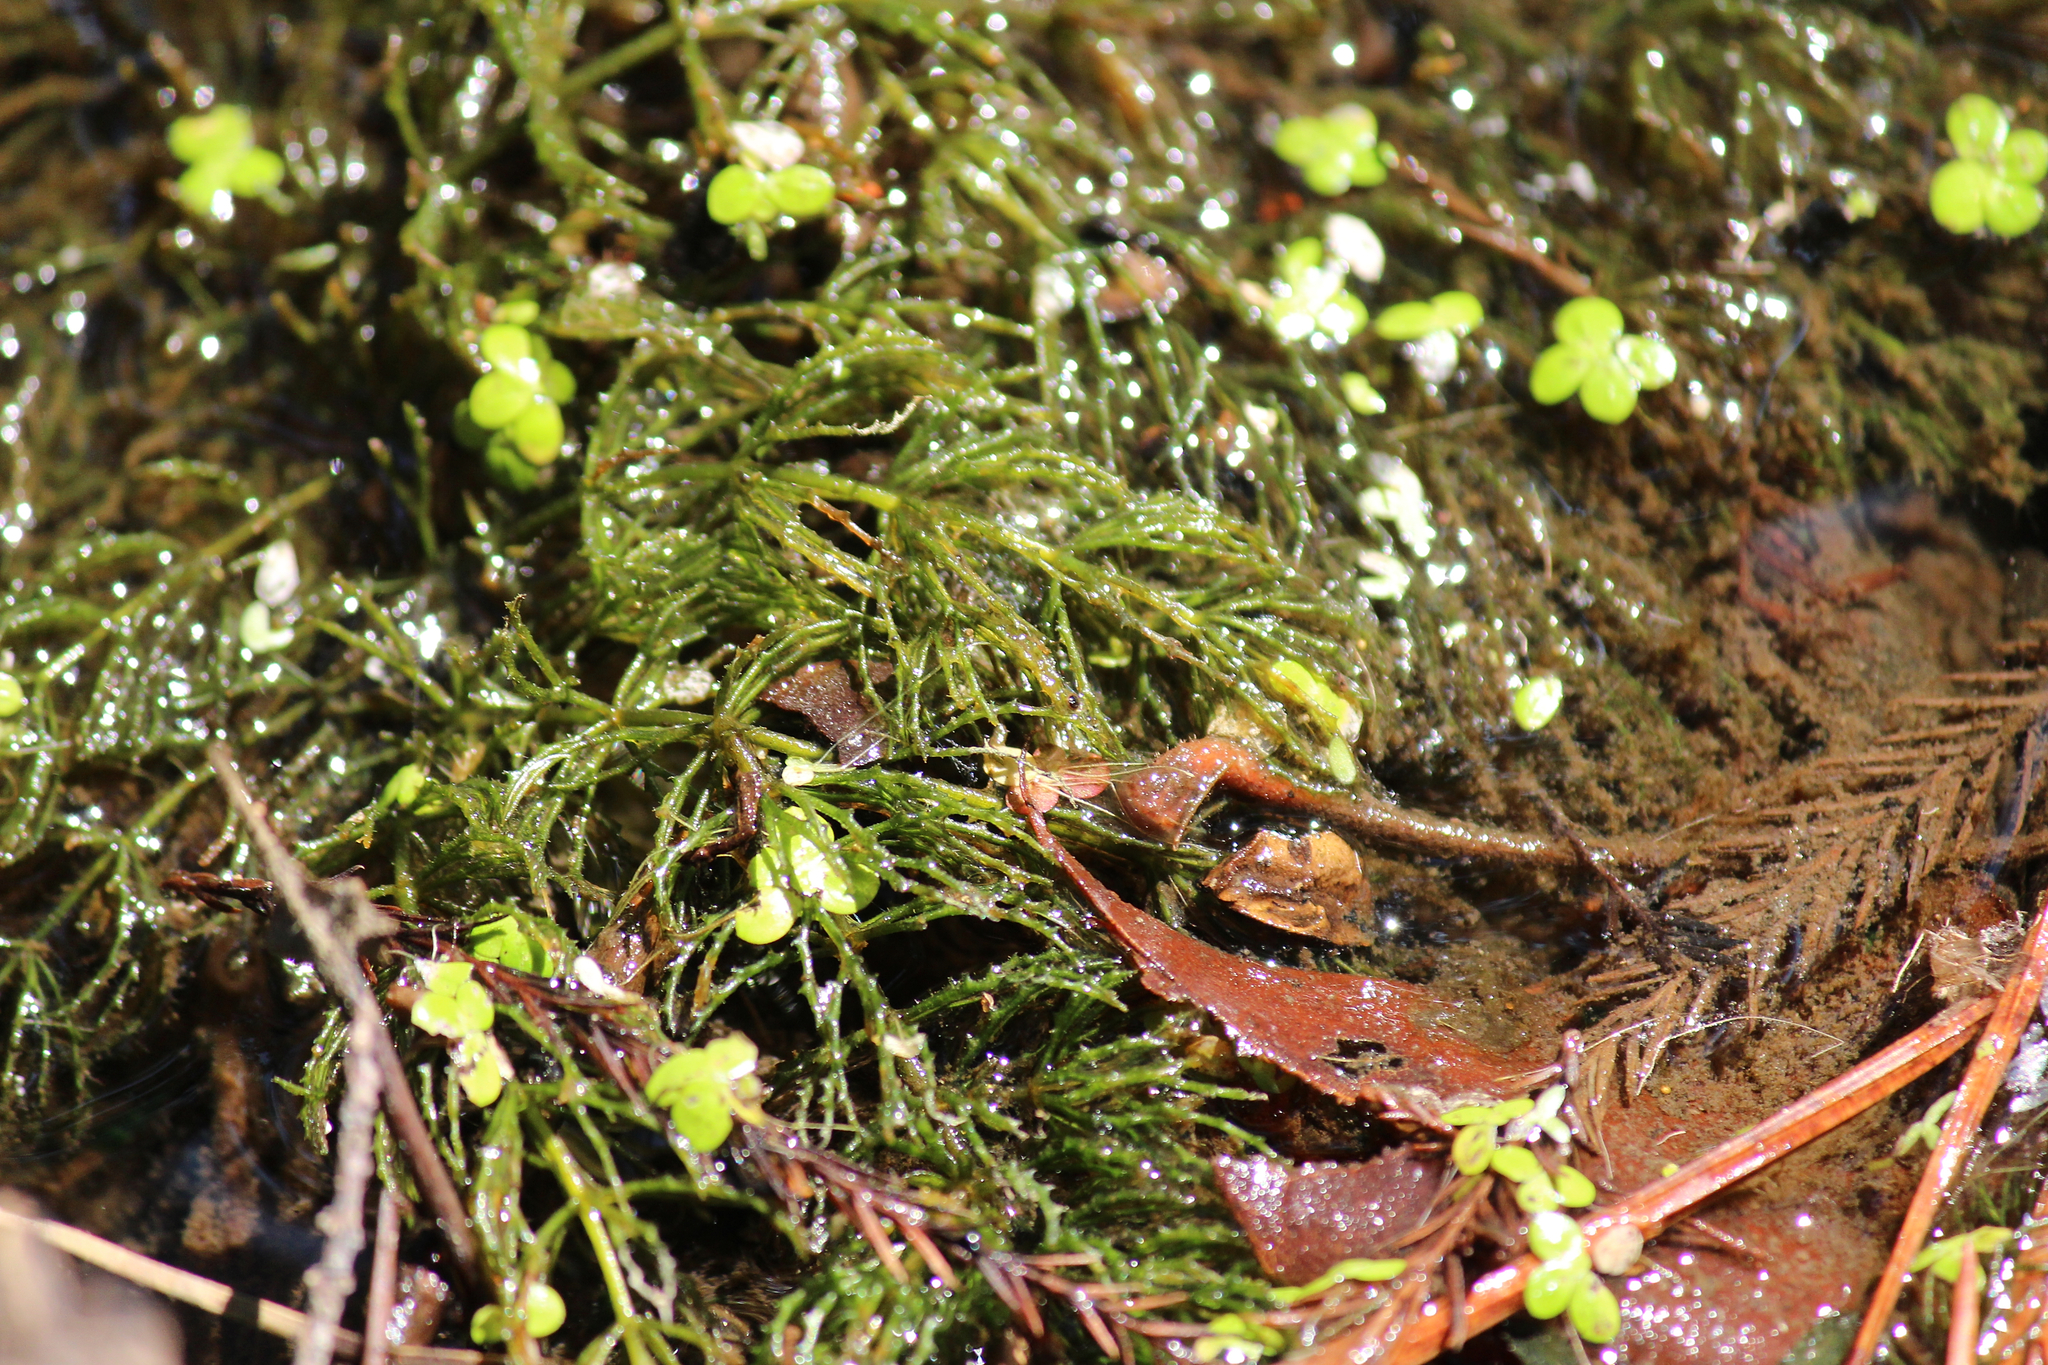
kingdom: Plantae
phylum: Tracheophyta
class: Magnoliopsida
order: Ceratophyllales
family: Ceratophyllaceae
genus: Ceratophyllum
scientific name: Ceratophyllum demersum
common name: Rigid hornwort
